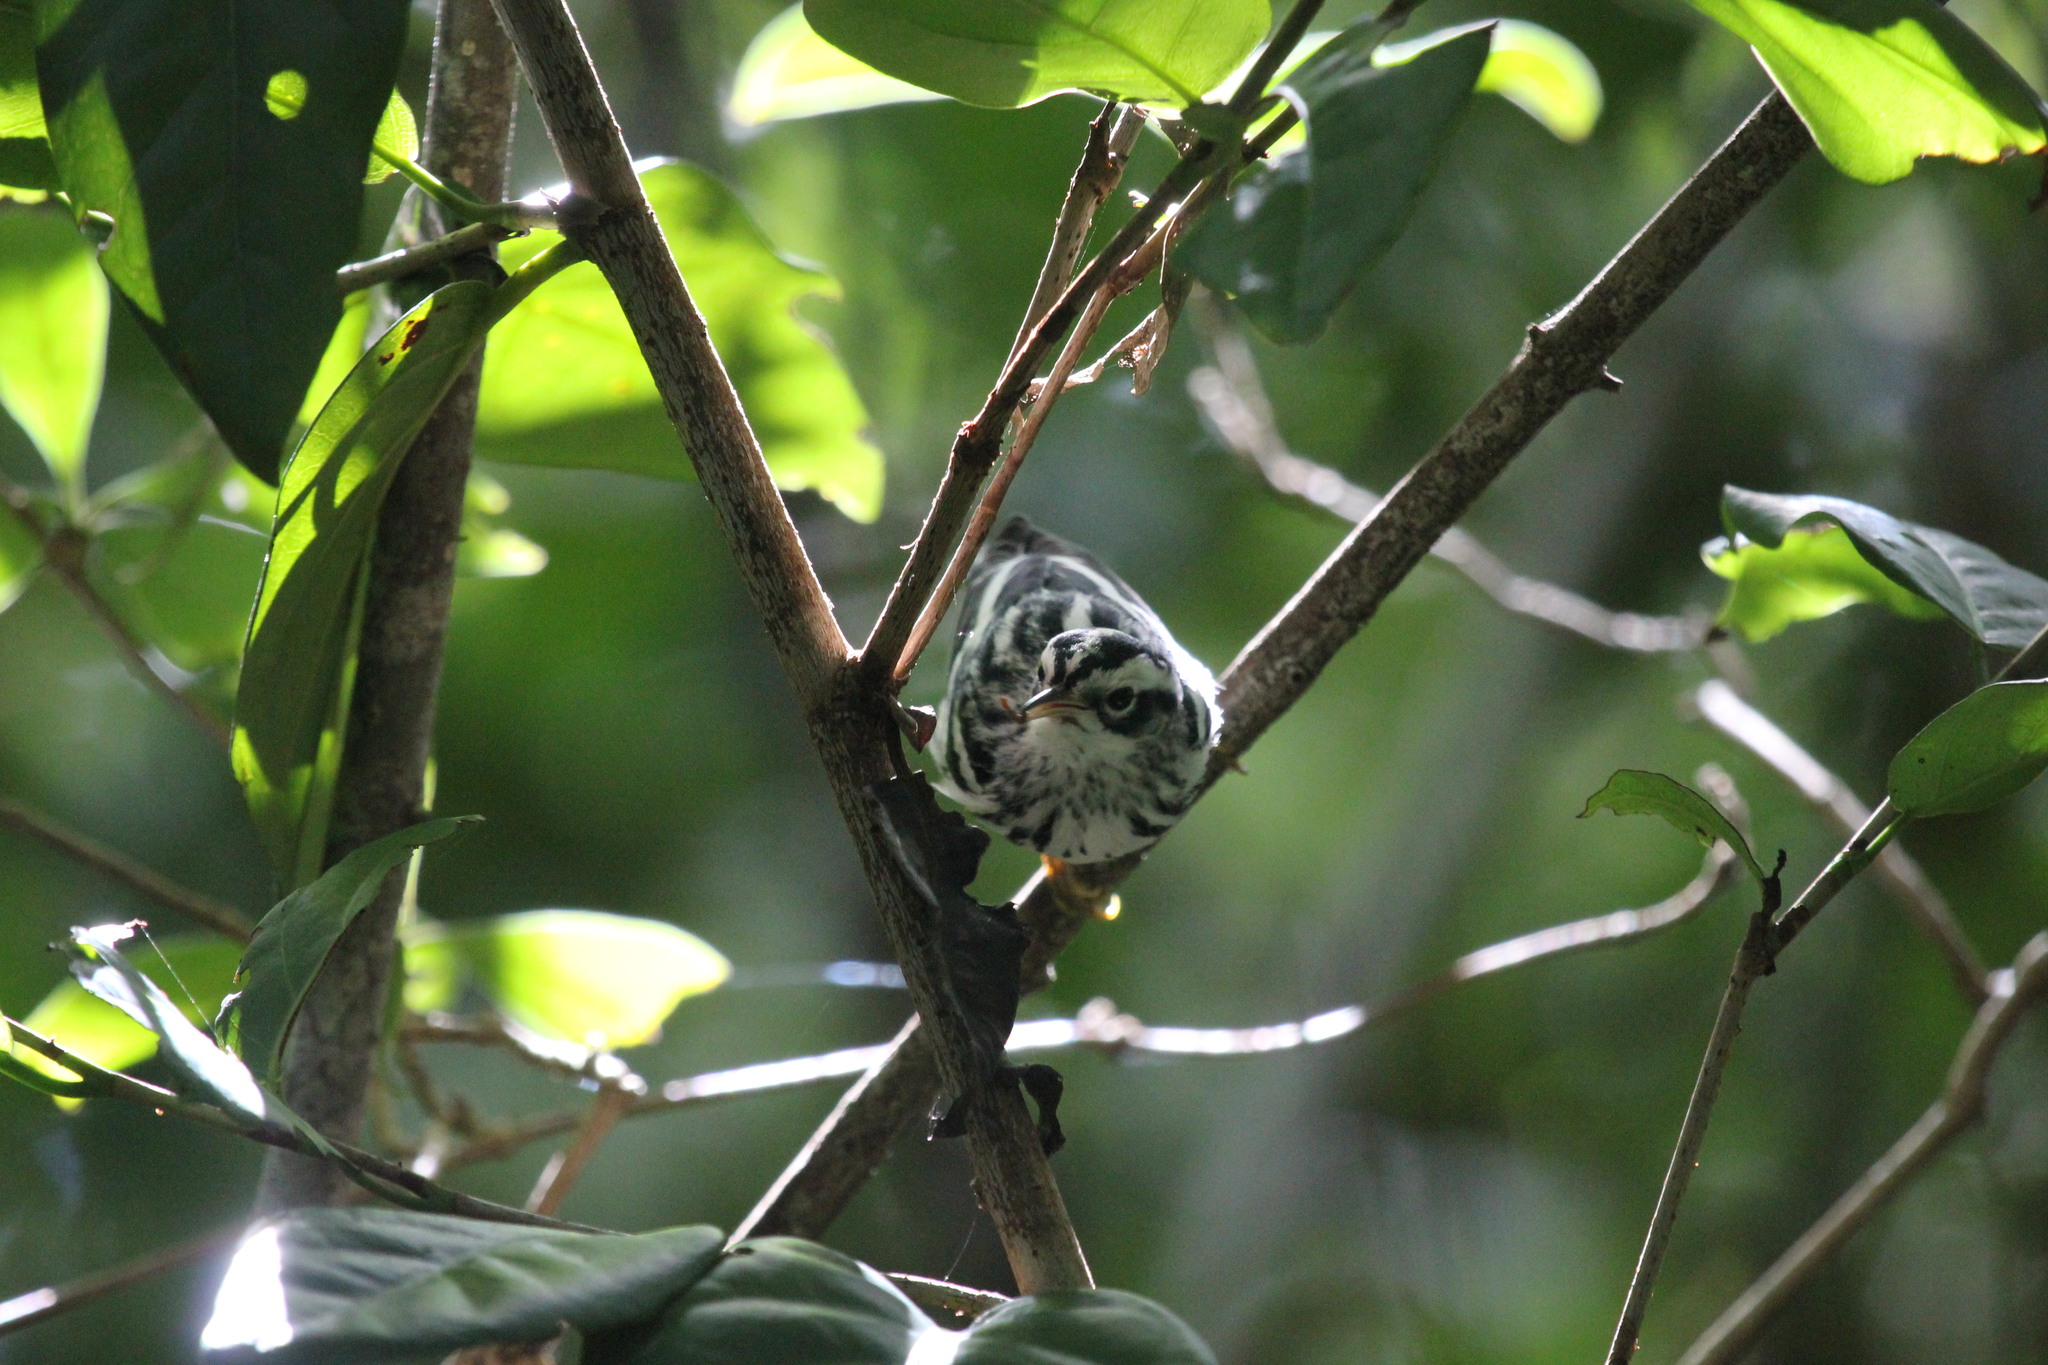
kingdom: Animalia
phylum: Chordata
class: Aves
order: Passeriformes
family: Parulidae
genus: Mniotilta
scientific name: Mniotilta varia
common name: Black-and-white warbler
